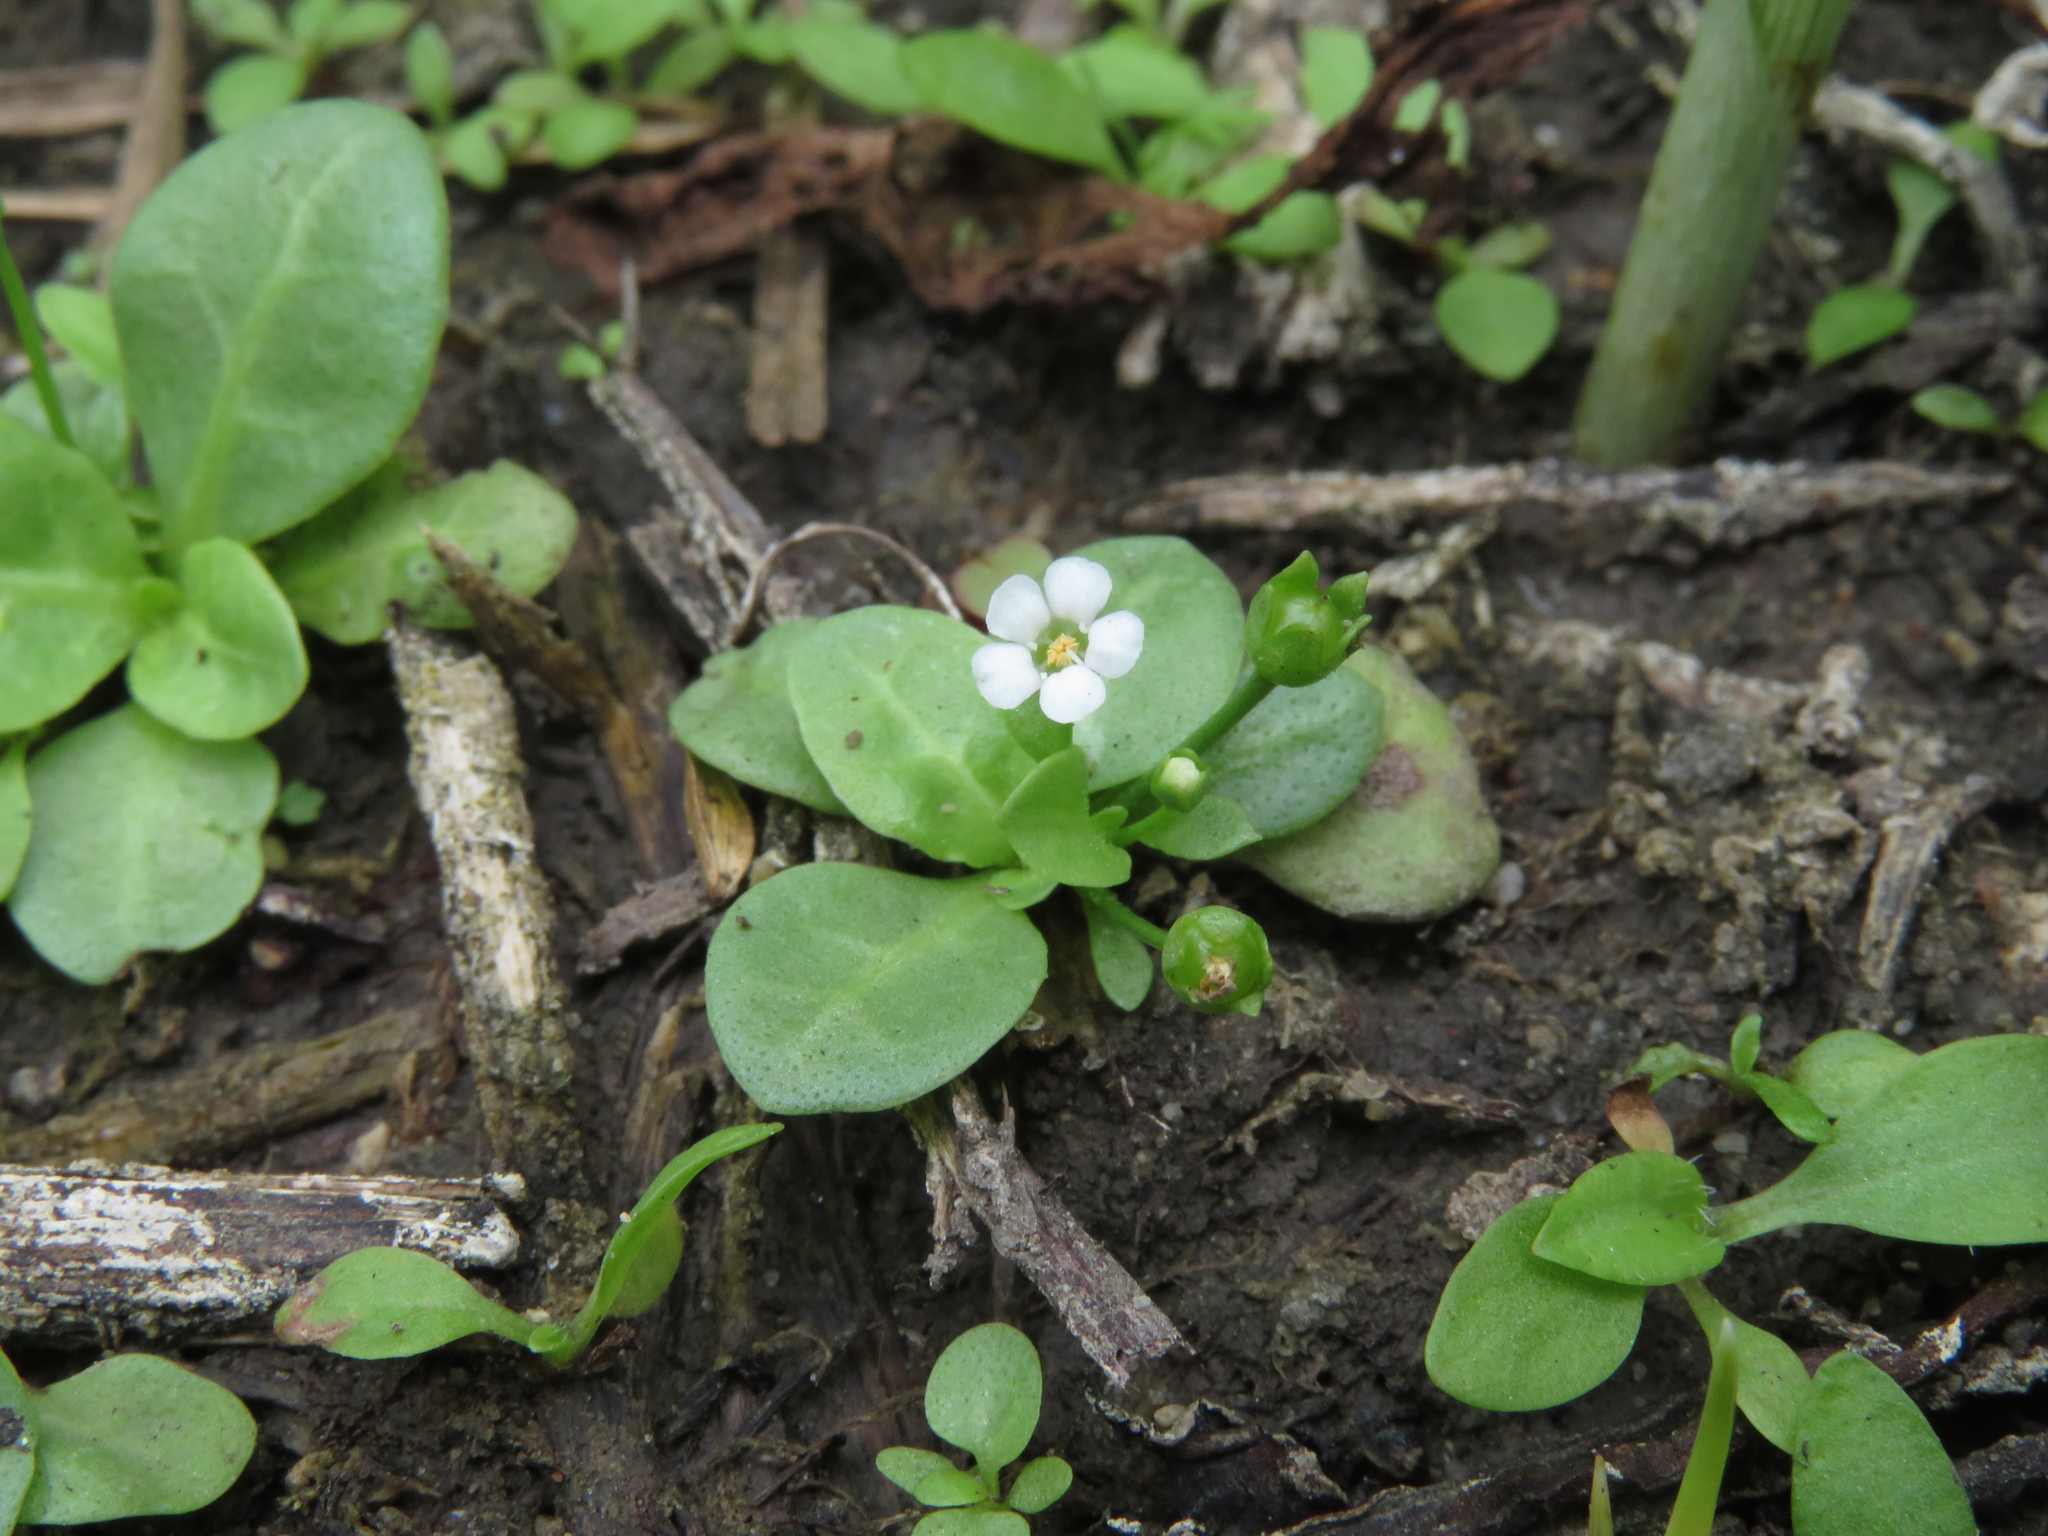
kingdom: Plantae
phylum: Tracheophyta
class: Magnoliopsida
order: Ericales
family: Primulaceae
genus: Samolus
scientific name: Samolus valerandi
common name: Brookweed
